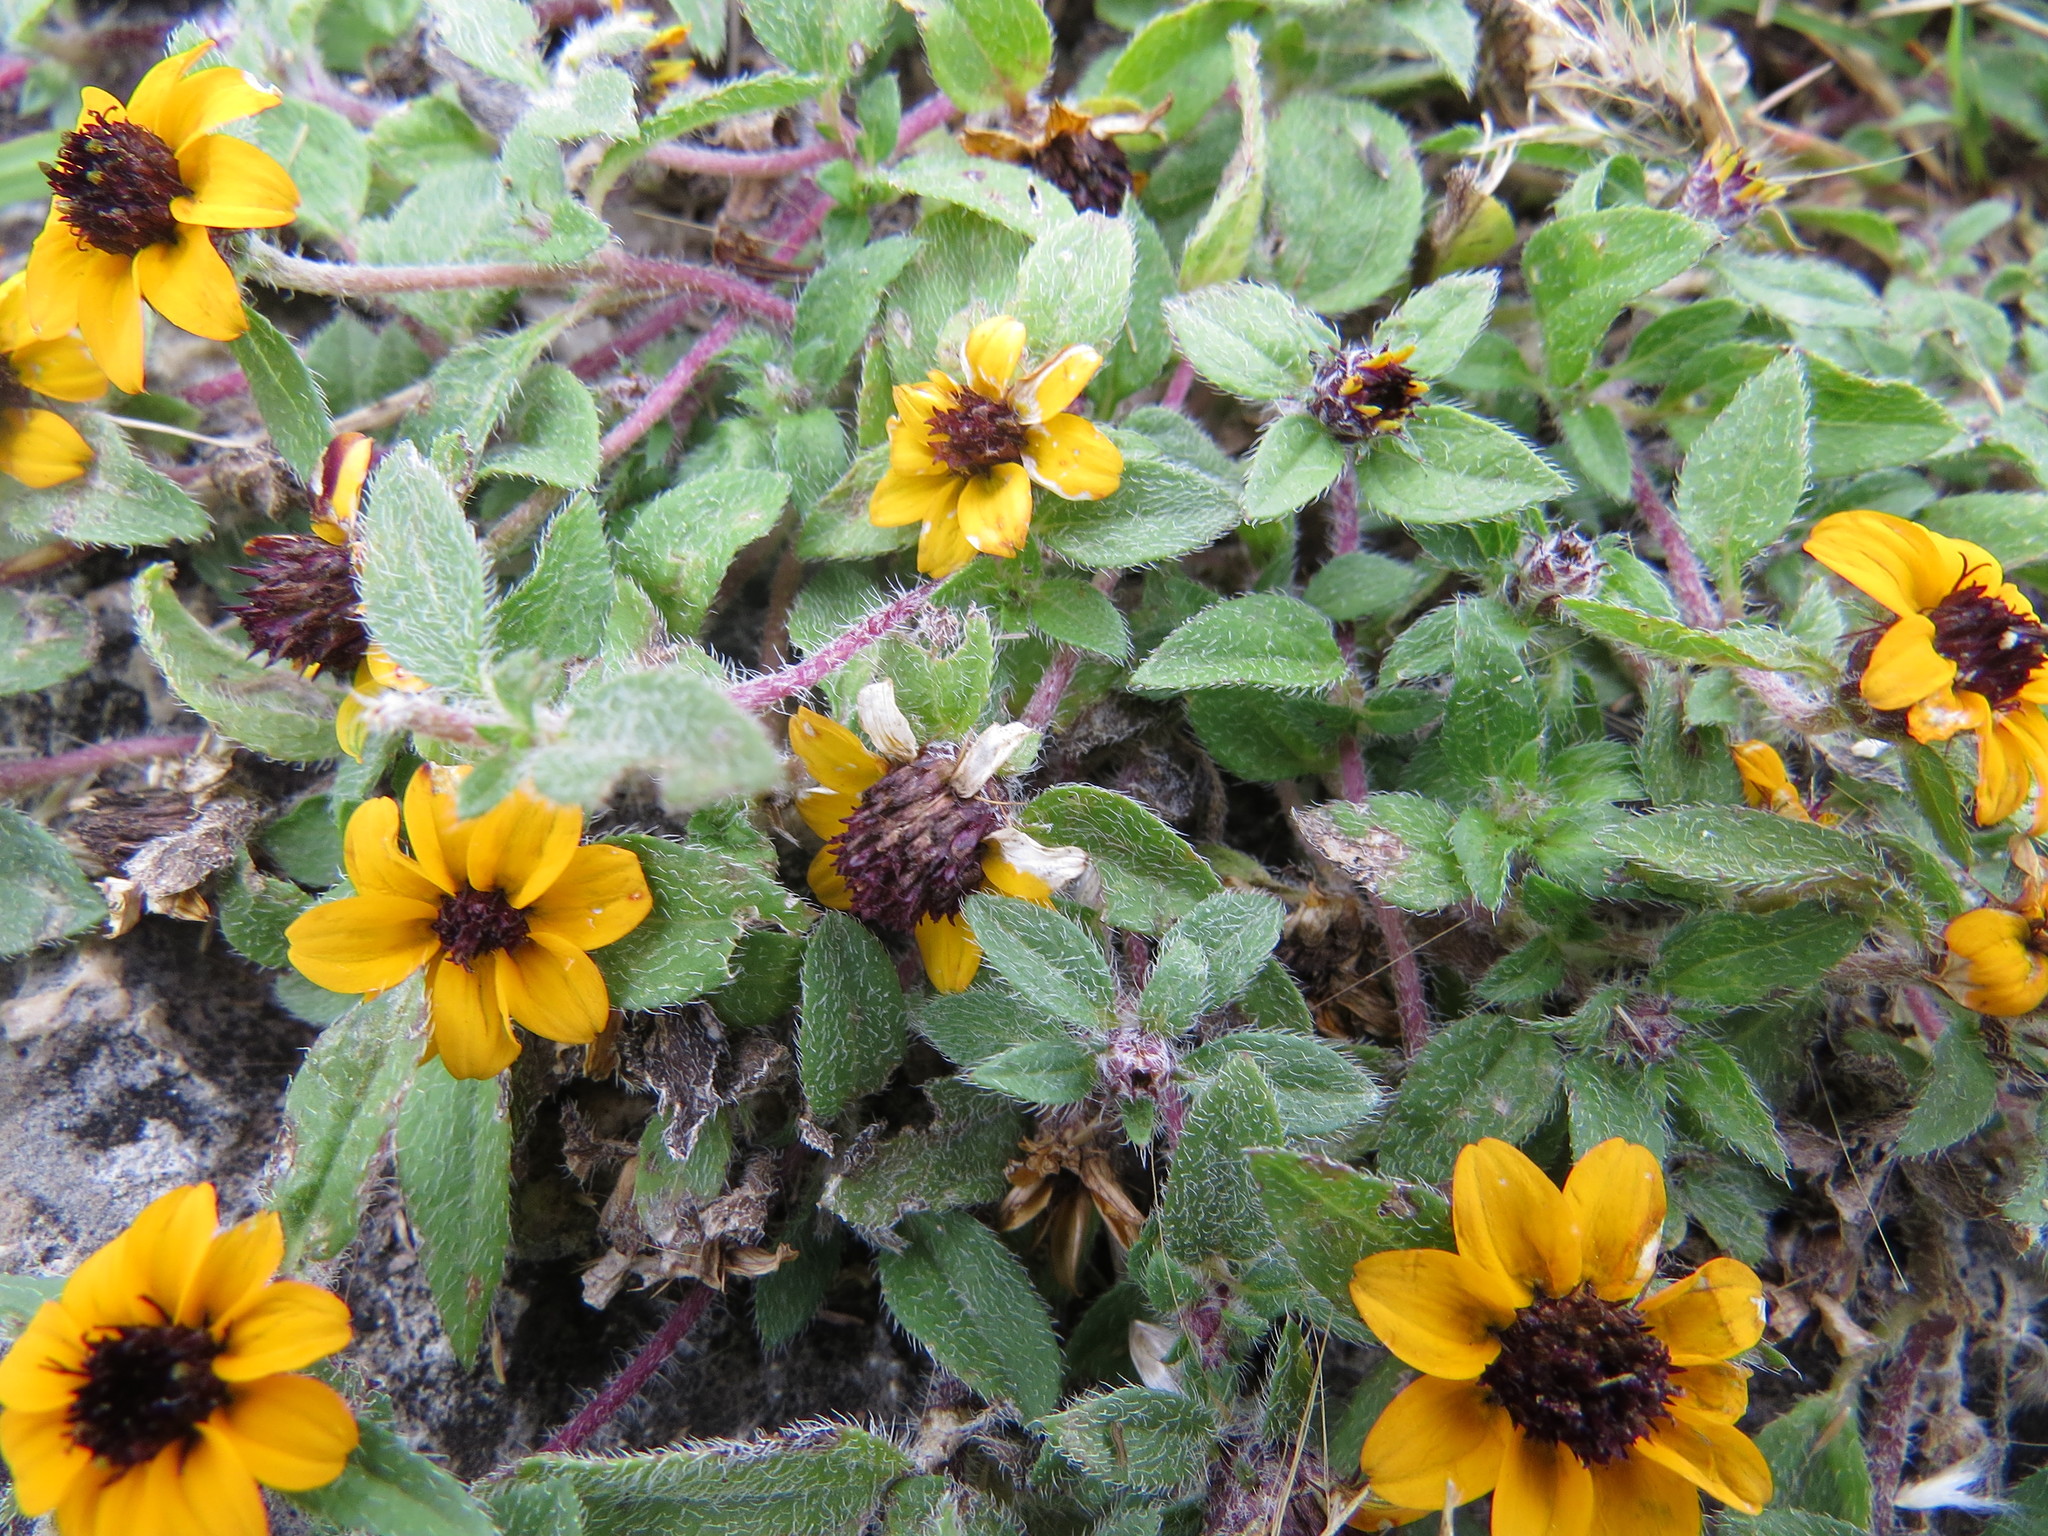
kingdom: Plantae
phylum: Tracheophyta
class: Magnoliopsida
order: Asterales
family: Asteraceae
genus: Sanvitalia
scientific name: Sanvitalia procumbens
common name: Mexican creeping zinnia
